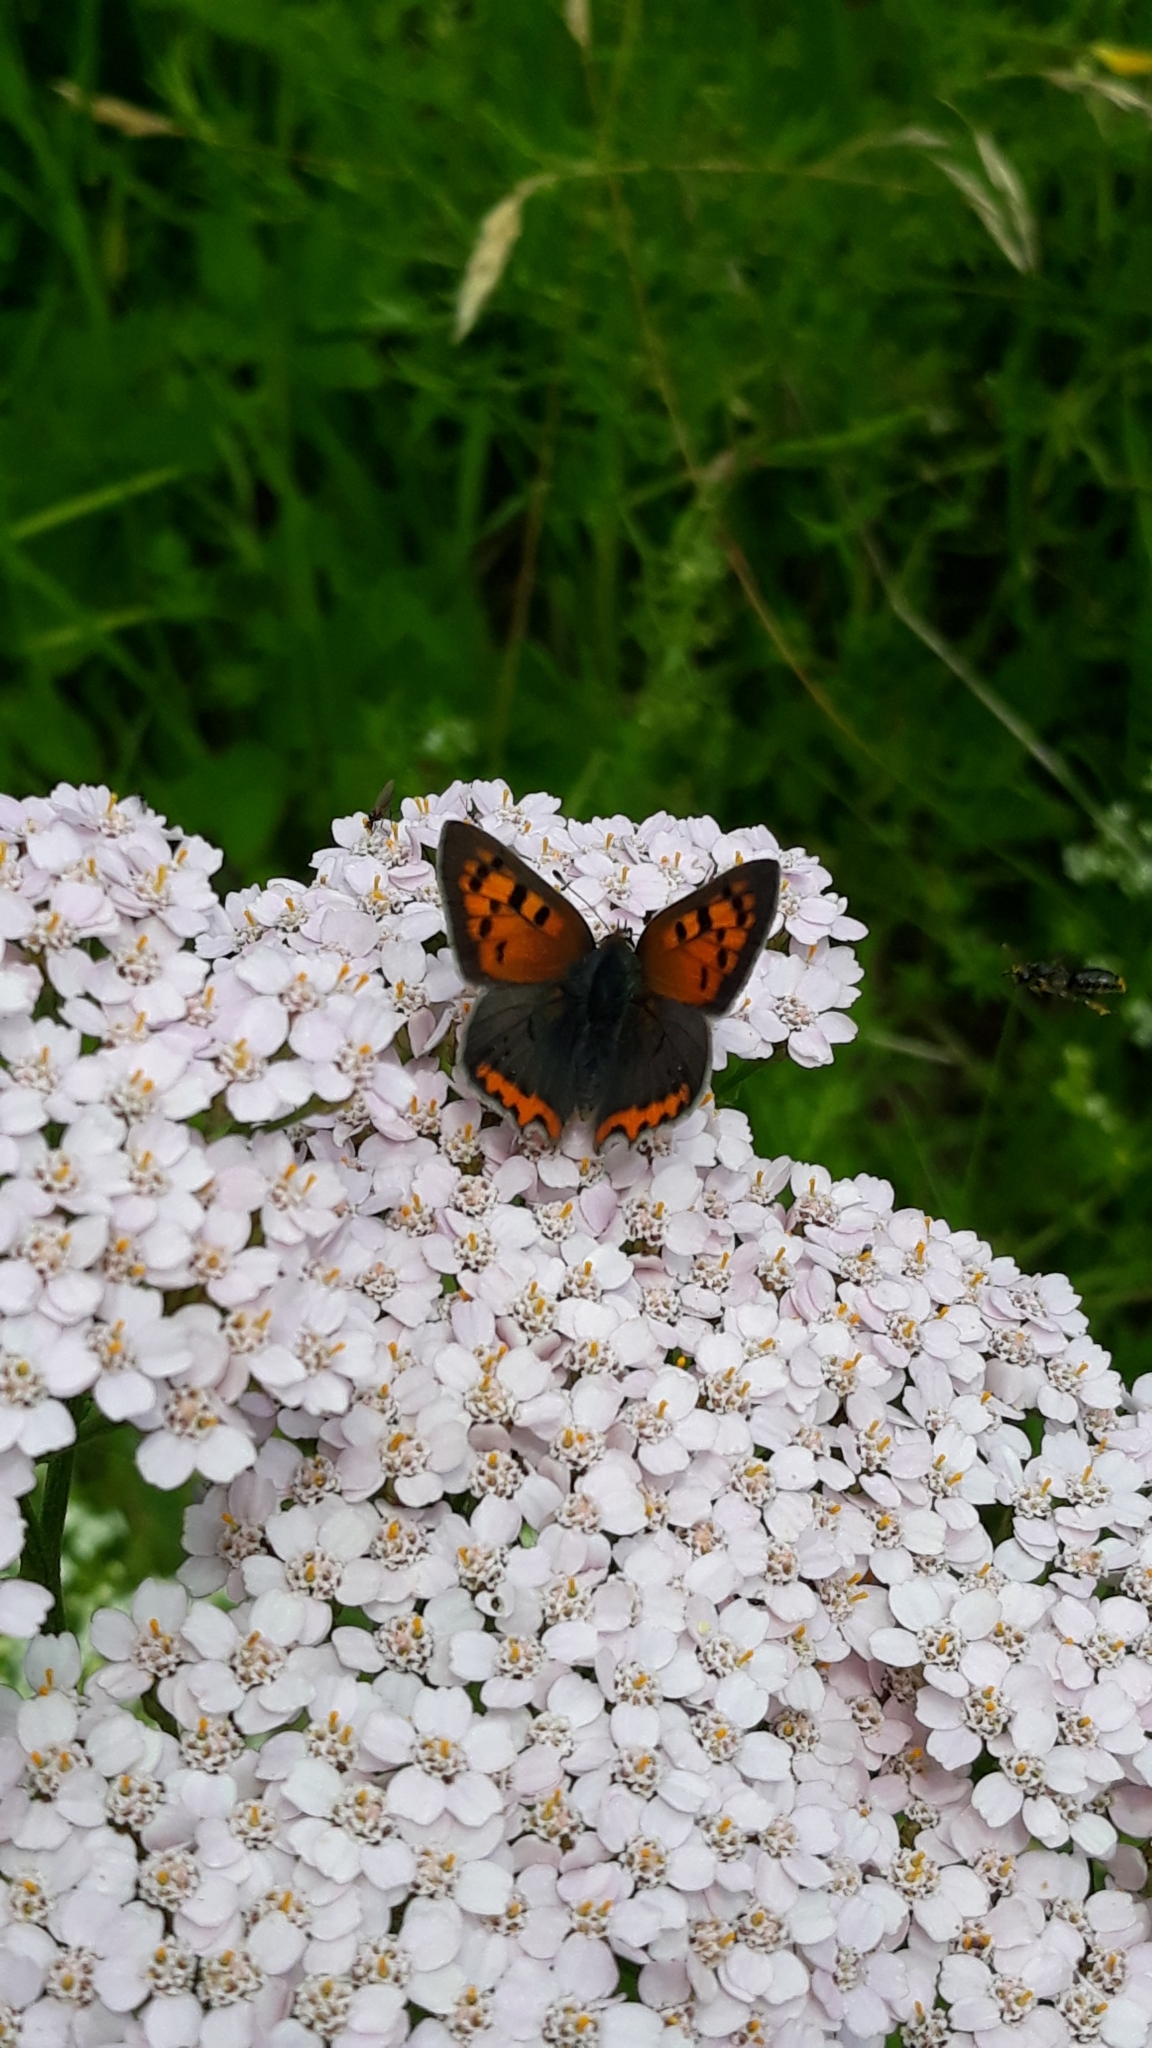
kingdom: Animalia
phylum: Arthropoda
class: Insecta
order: Lepidoptera
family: Lycaenidae
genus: Lycaena
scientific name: Lycaena phlaeas
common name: Small copper
